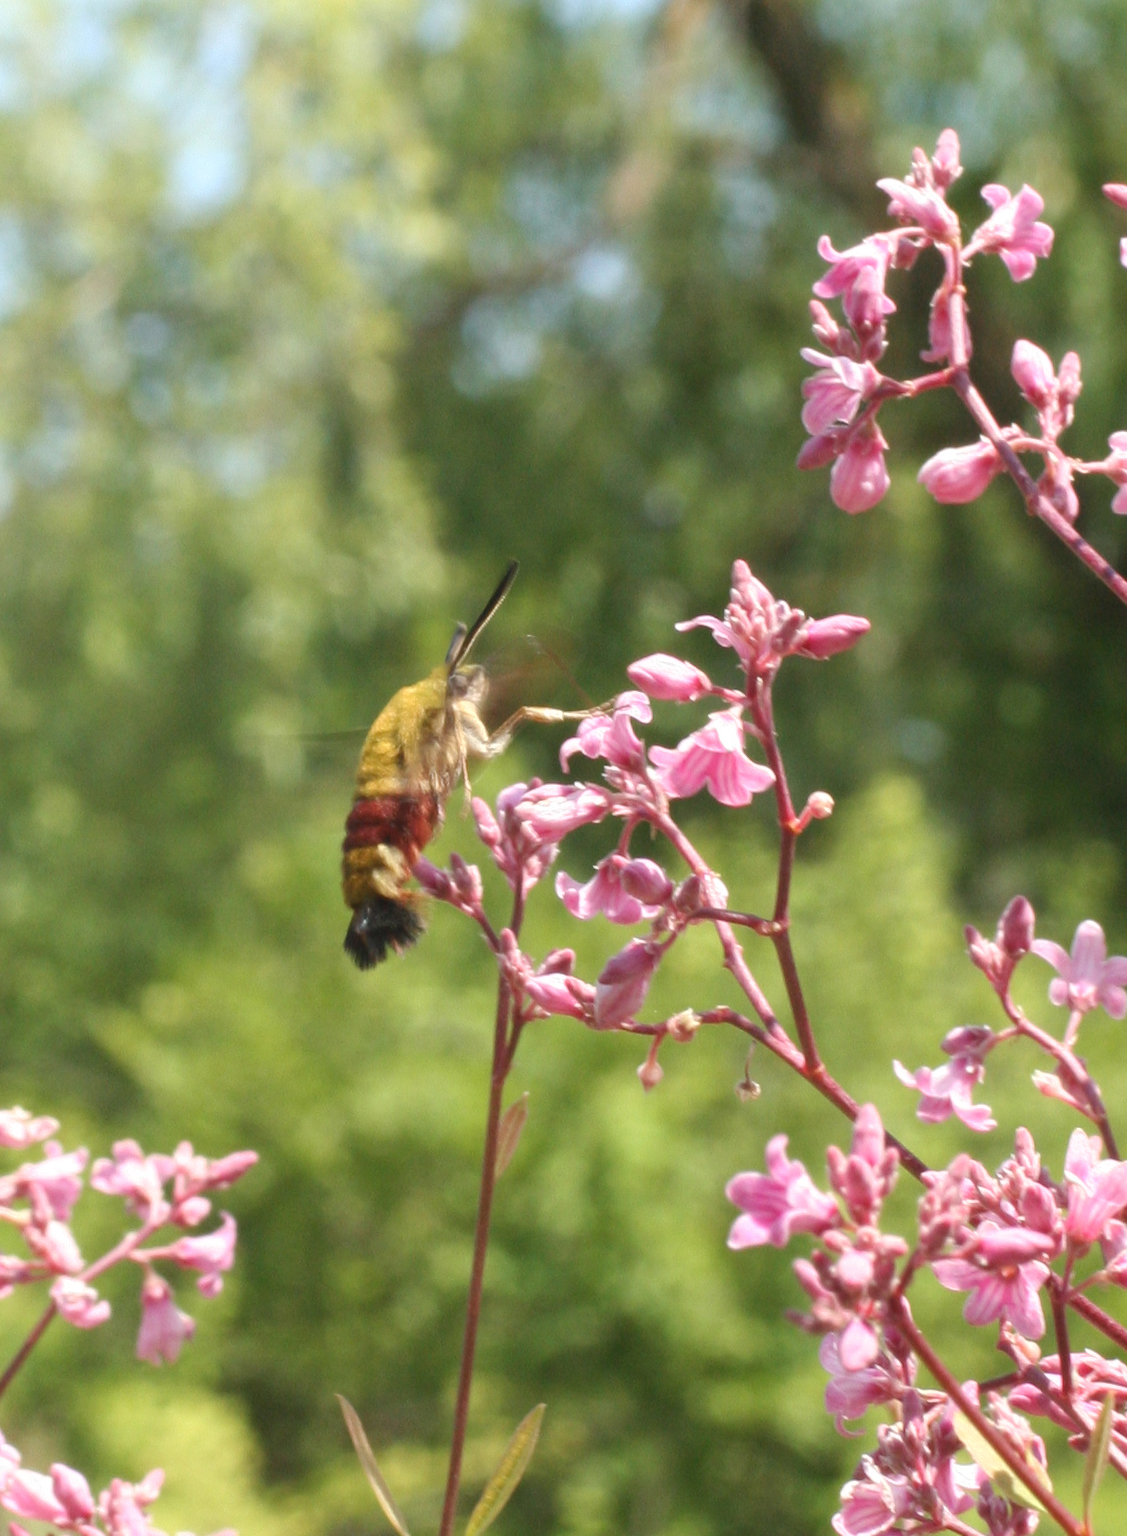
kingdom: Animalia
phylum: Arthropoda
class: Insecta
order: Lepidoptera
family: Sphingidae
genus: Hemaris
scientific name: Hemaris fuciformis
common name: Broad-bordered bee hawk-moth
